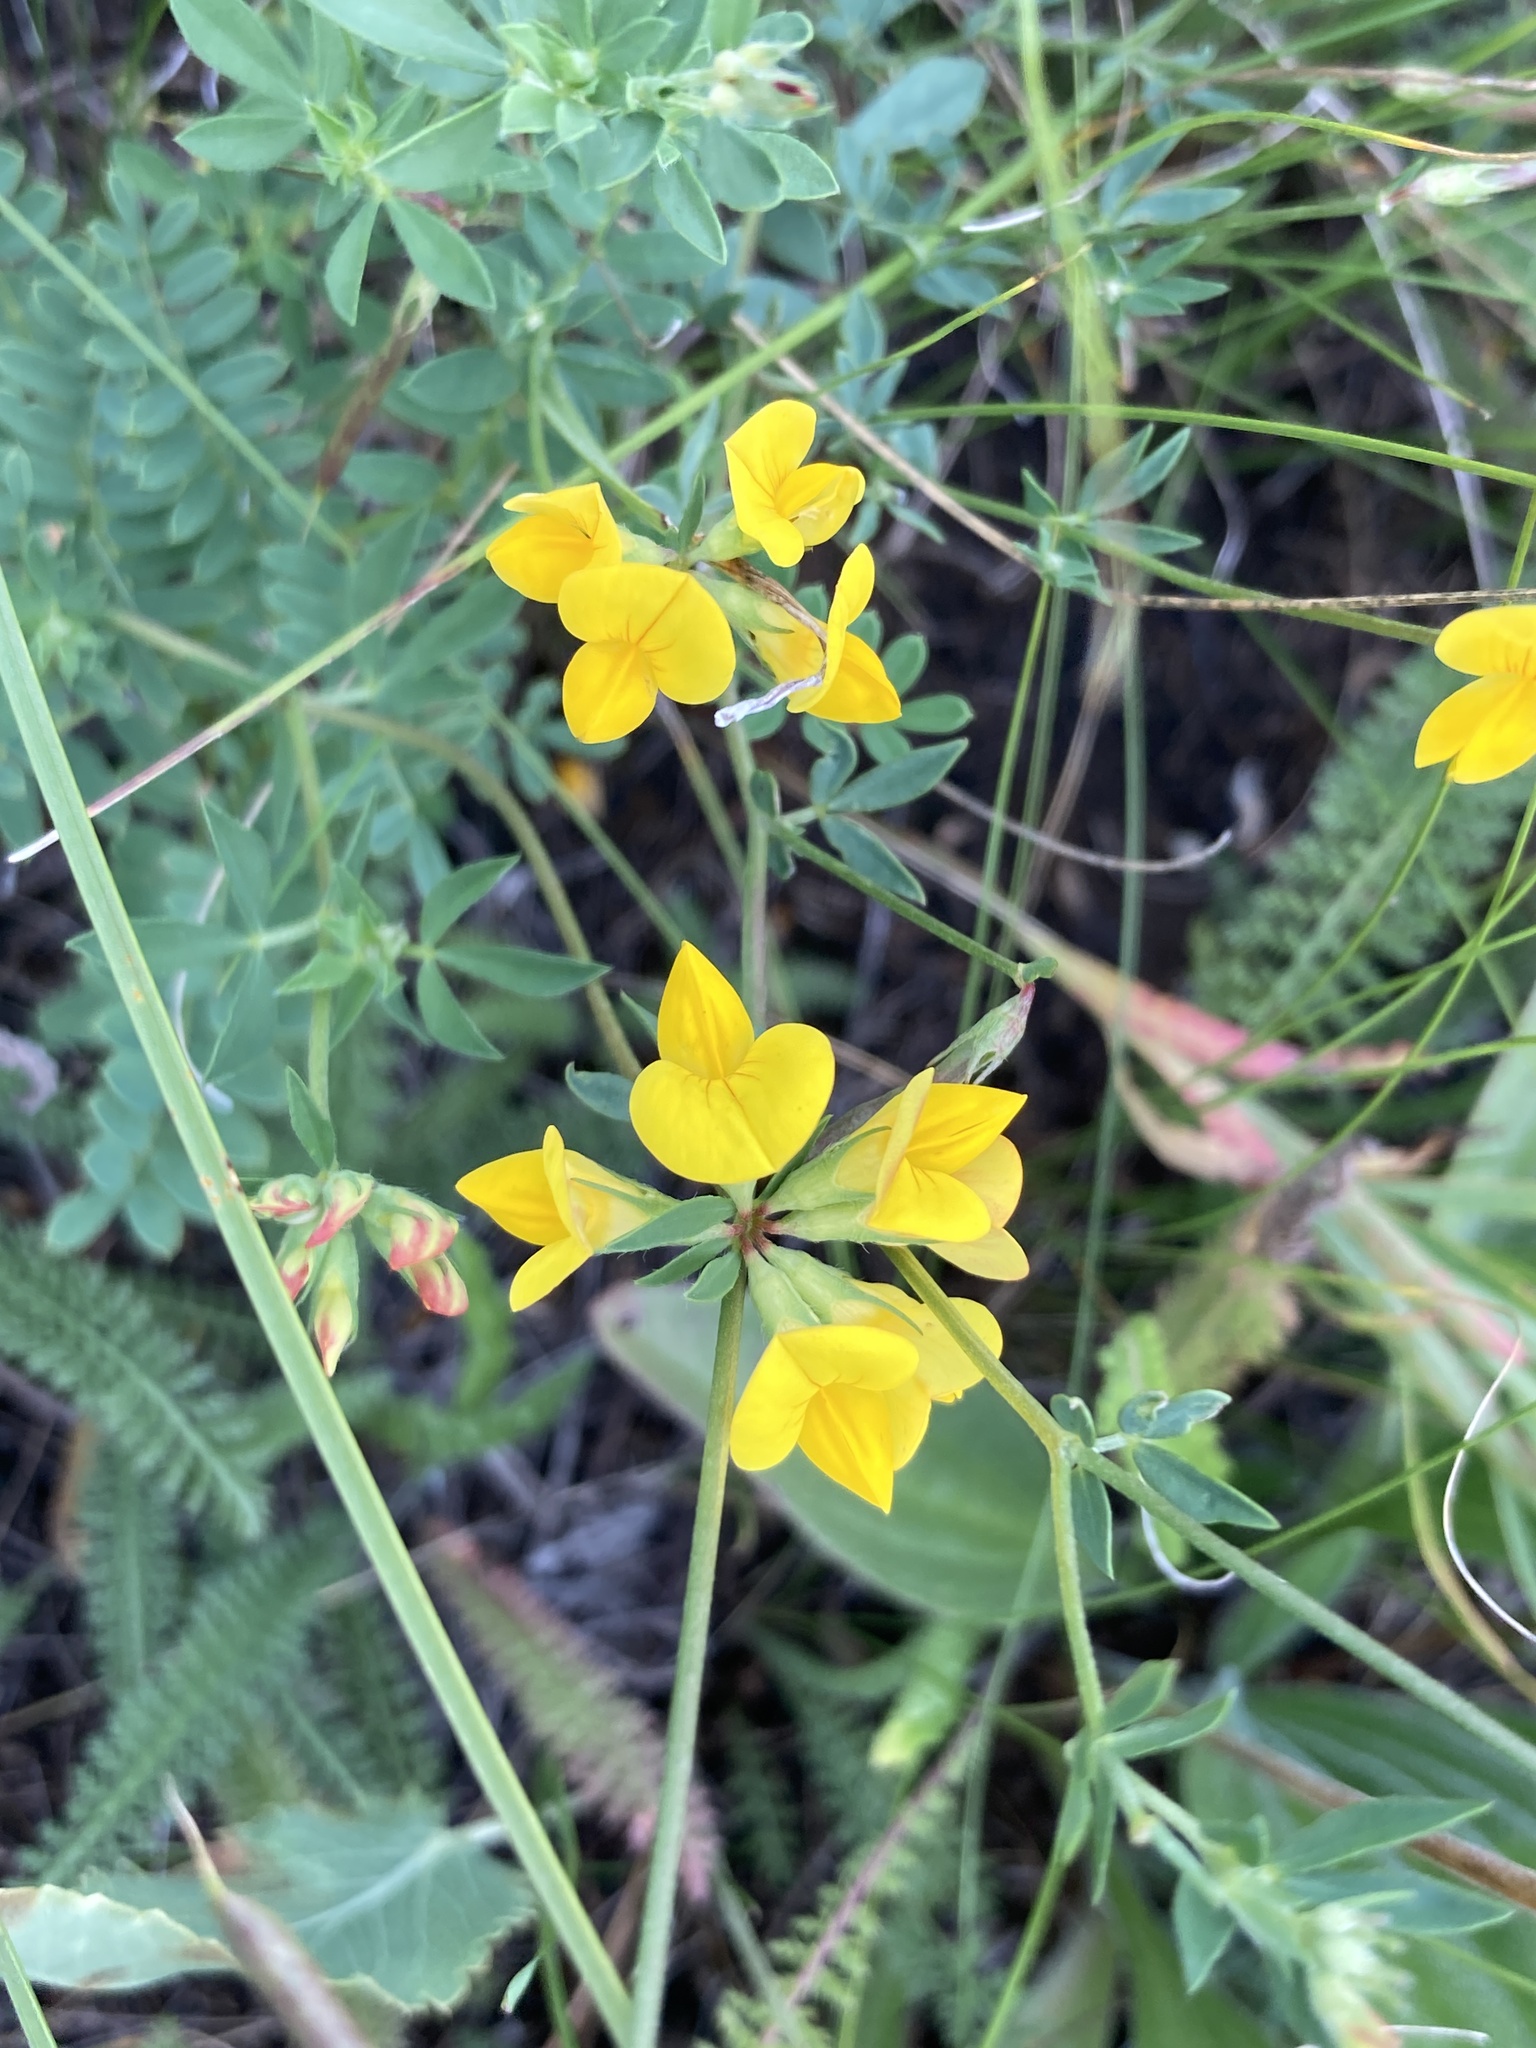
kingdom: Plantae
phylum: Tracheophyta
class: Magnoliopsida
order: Fabales
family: Fabaceae
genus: Lotus
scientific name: Lotus corniculatus
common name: Common bird's-foot-trefoil
